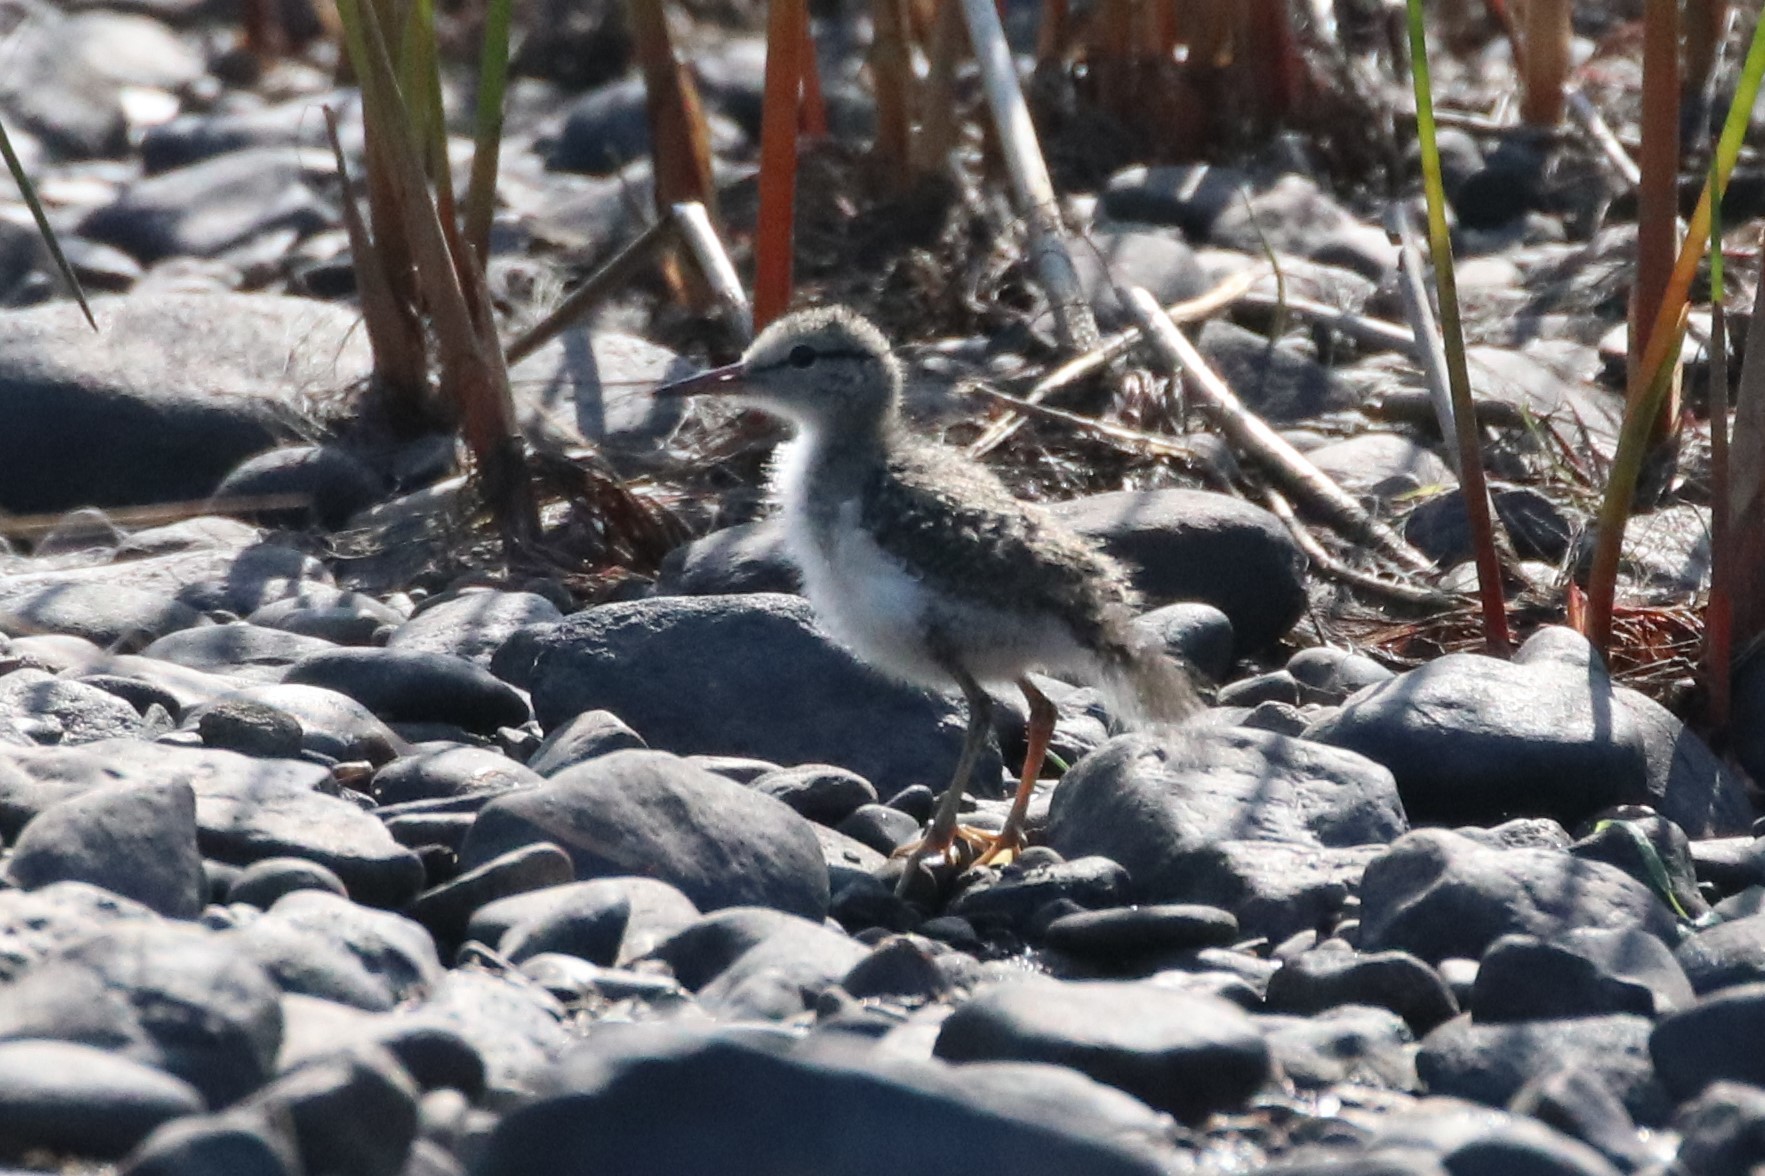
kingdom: Animalia
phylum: Chordata
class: Aves
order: Charadriiformes
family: Scolopacidae
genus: Actitis
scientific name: Actitis macularius
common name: Spotted sandpiper
